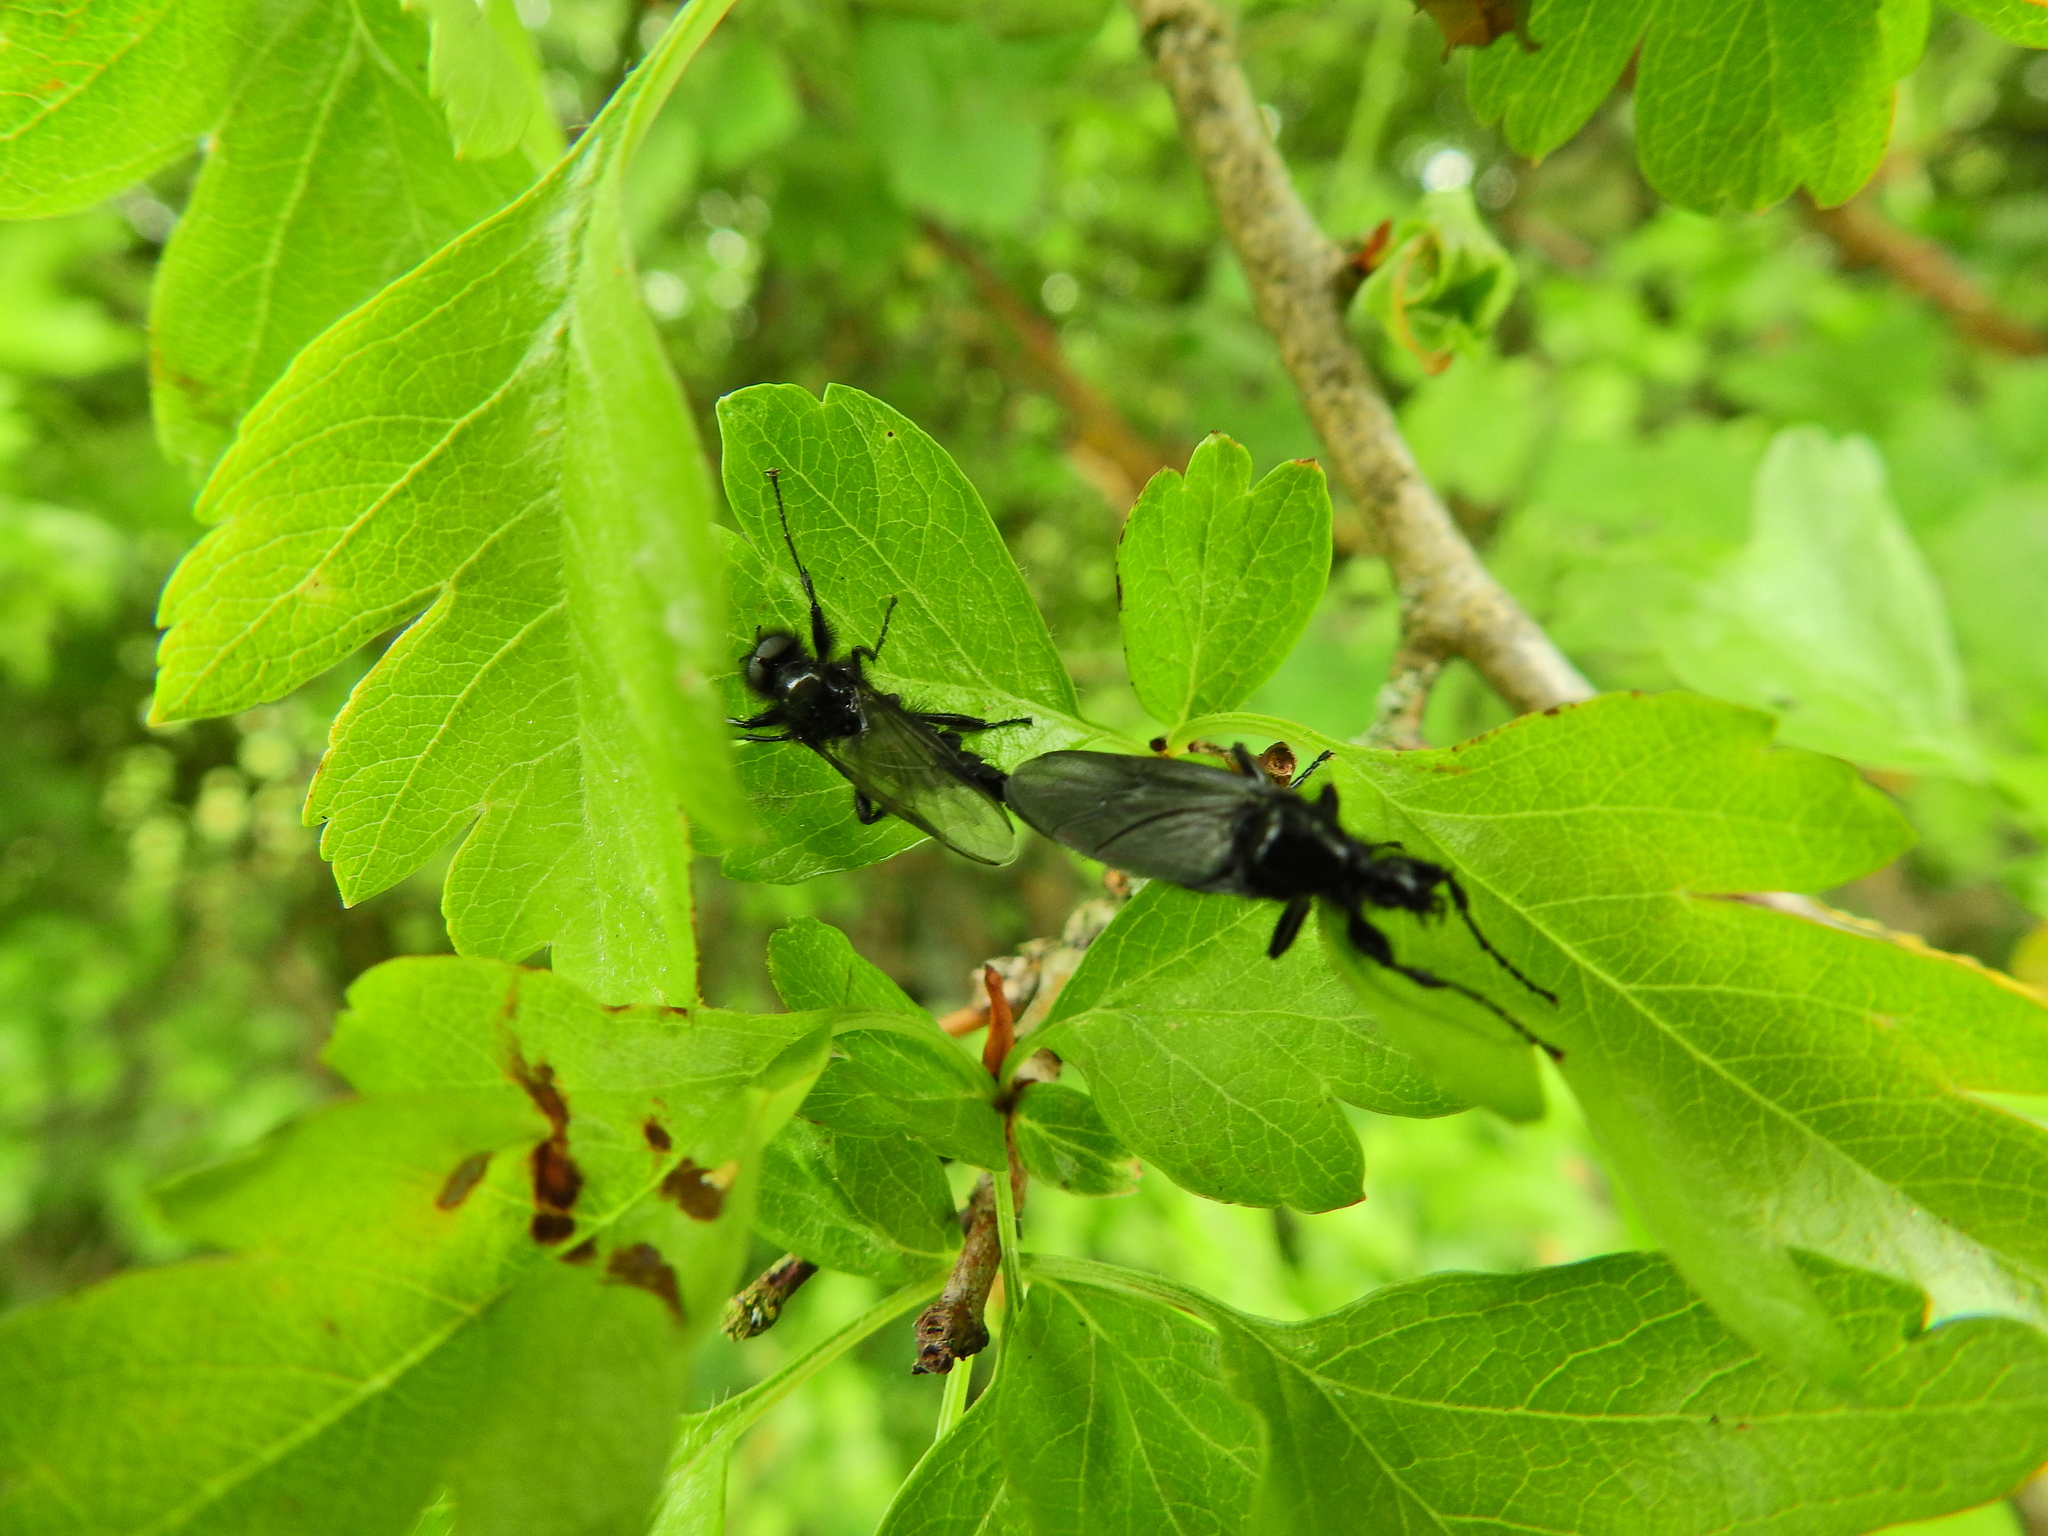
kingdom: Animalia
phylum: Arthropoda
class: Insecta
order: Diptera
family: Bibionidae
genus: Bibio
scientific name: Bibio marci
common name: St marks fly
